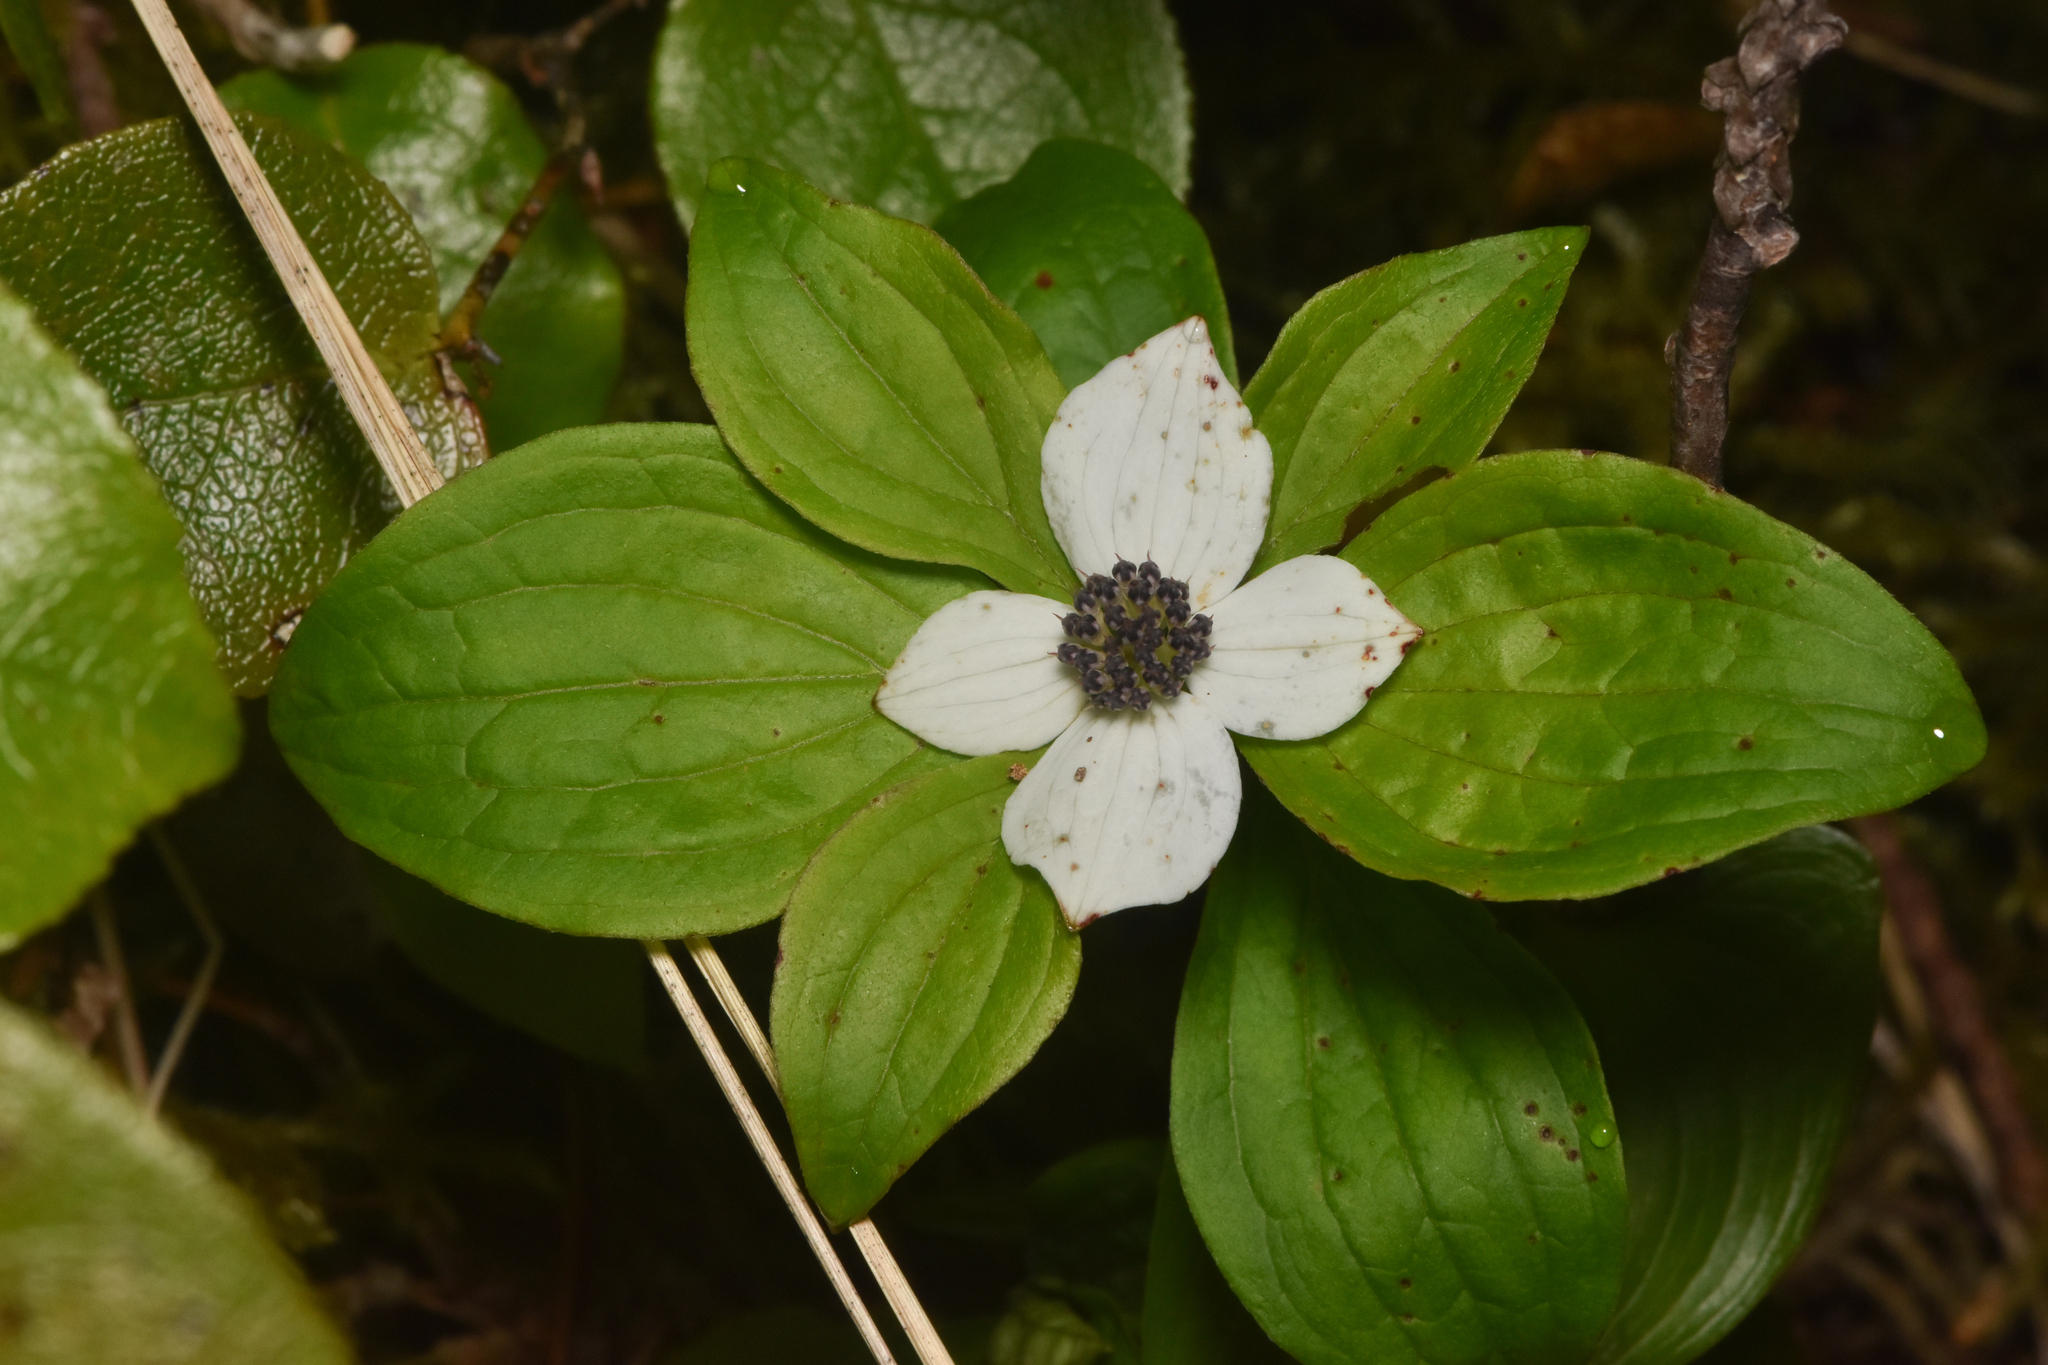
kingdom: Plantae
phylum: Tracheophyta
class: Magnoliopsida
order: Cornales
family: Cornaceae
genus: Cornus
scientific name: Cornus unalaschkensis
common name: Alaska bunchberry
